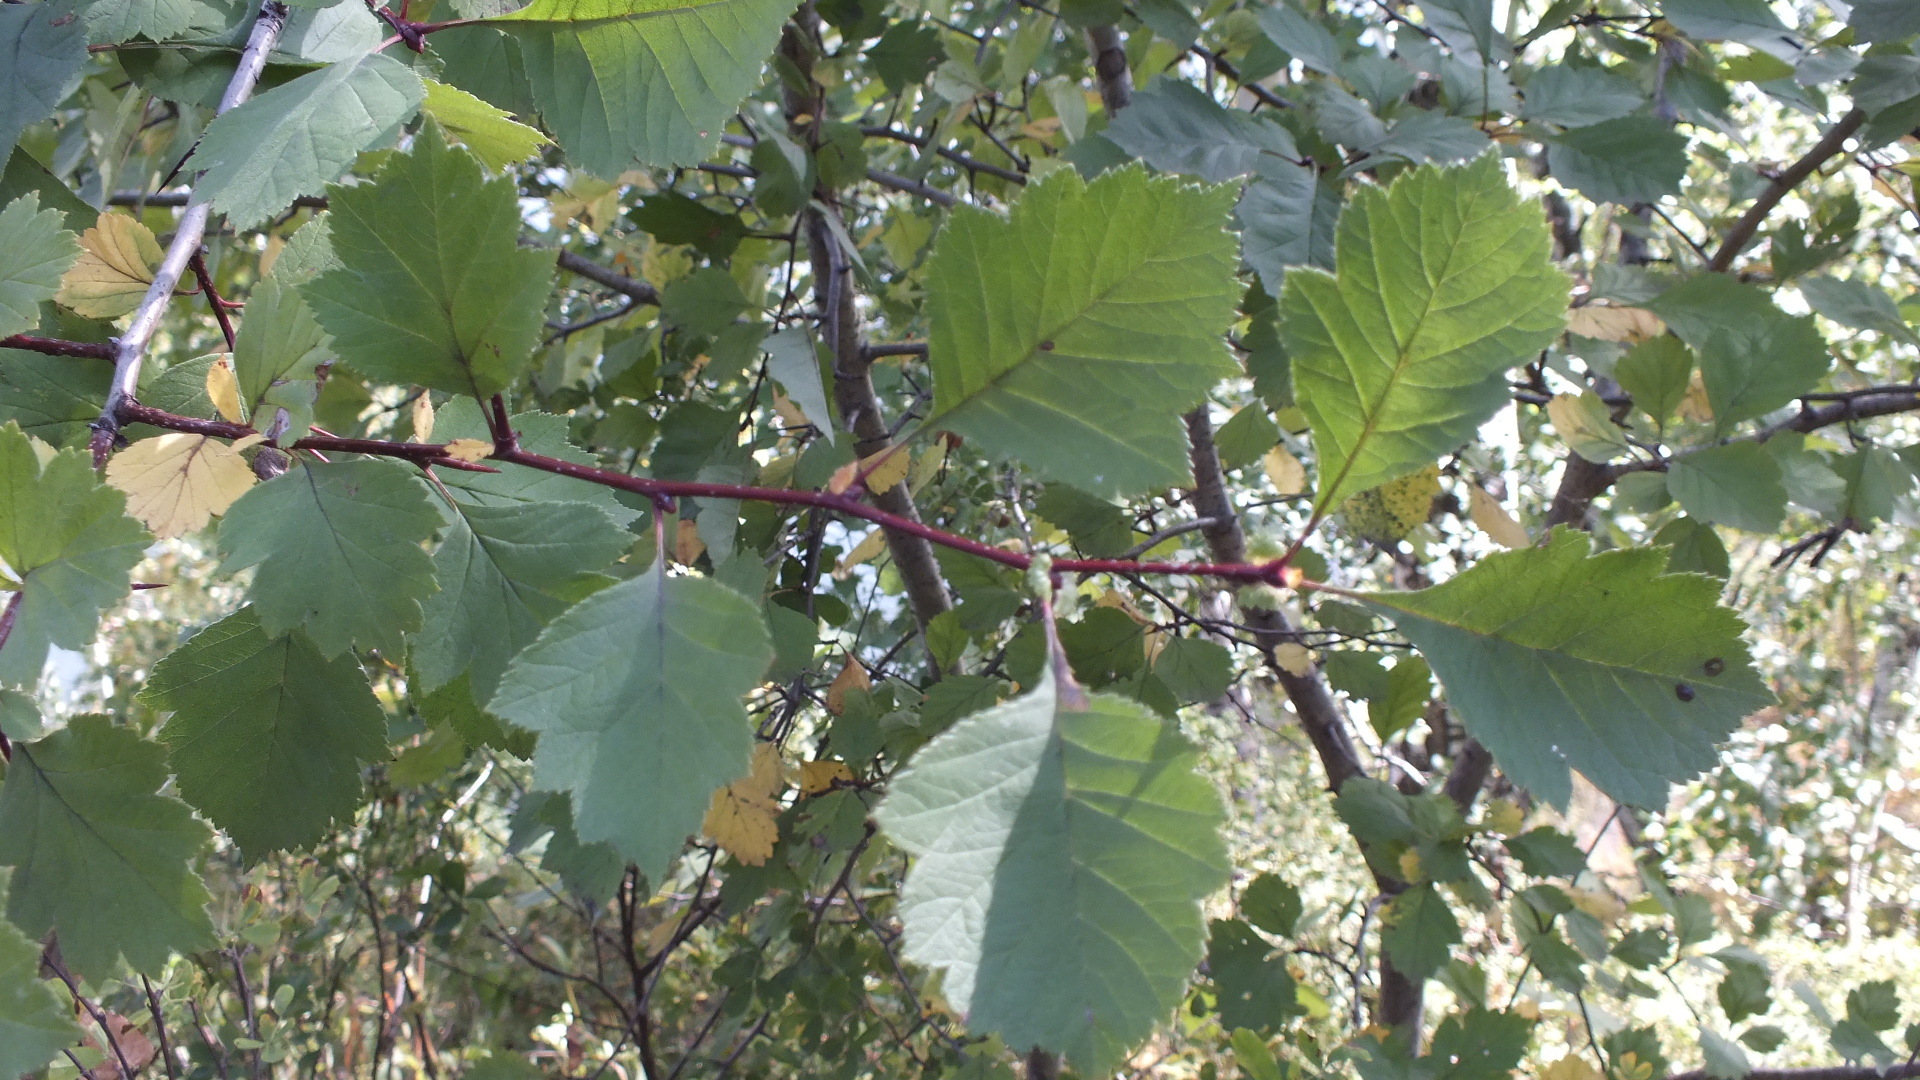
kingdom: Plantae
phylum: Tracheophyta
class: Magnoliopsida
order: Rosales
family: Rosaceae
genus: Crataegus
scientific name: Crataegus sanguinea
